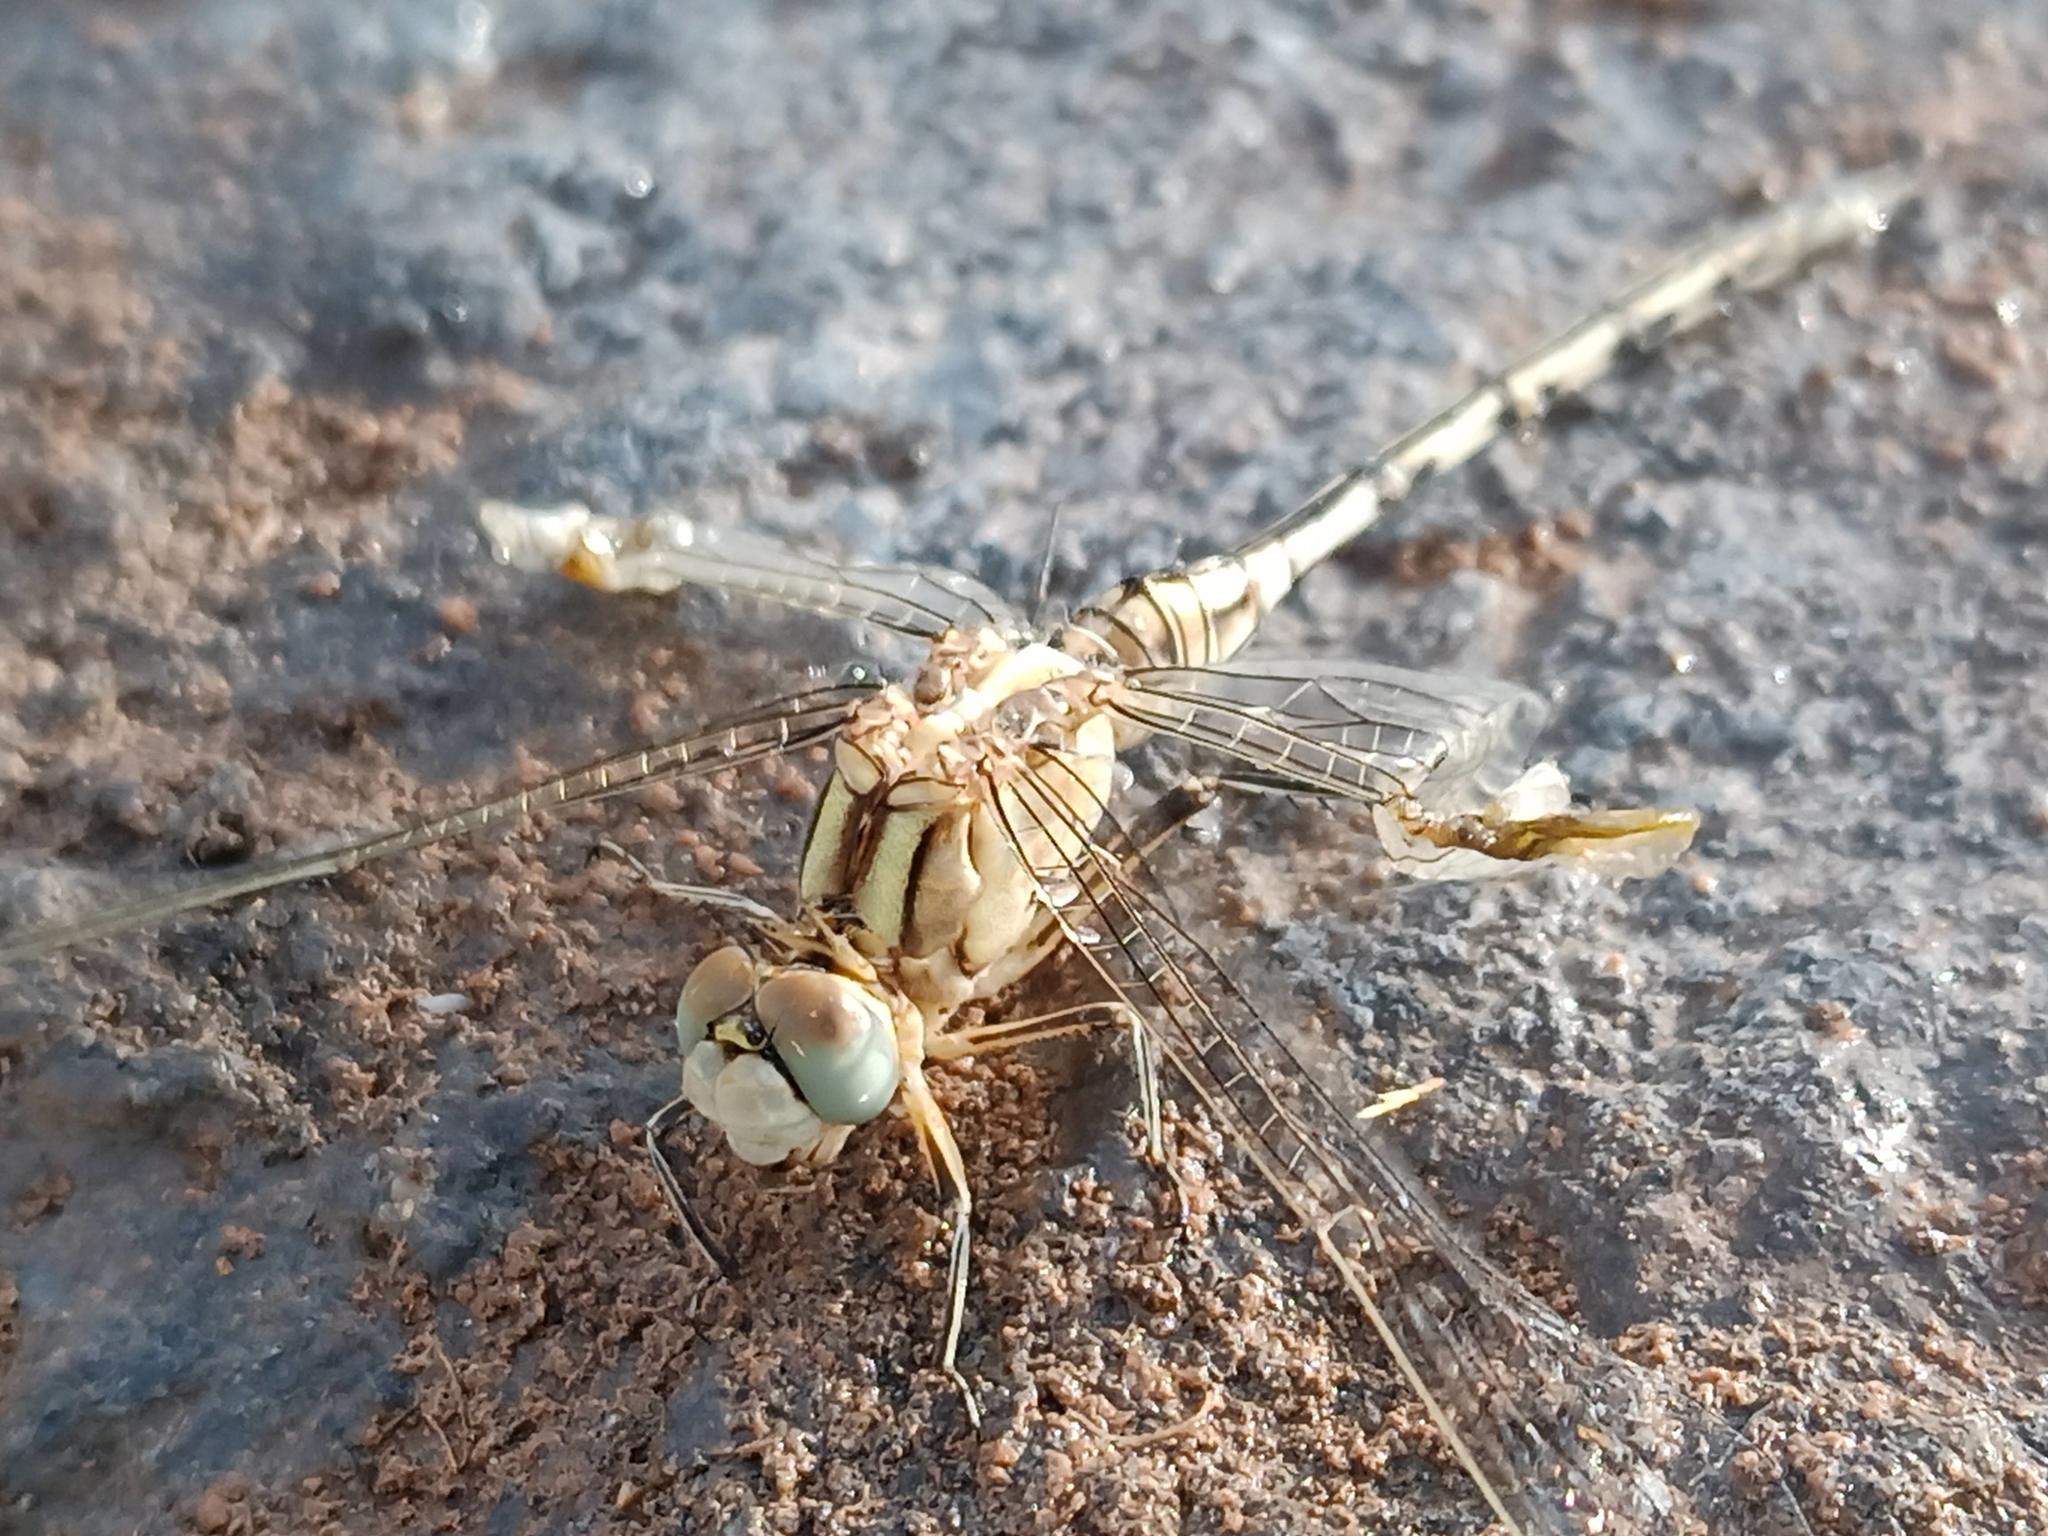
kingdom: Animalia
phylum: Arthropoda
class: Insecta
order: Odonata
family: Libellulidae
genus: Orthetrum
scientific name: Orthetrum trinacria
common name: Long skimmer
